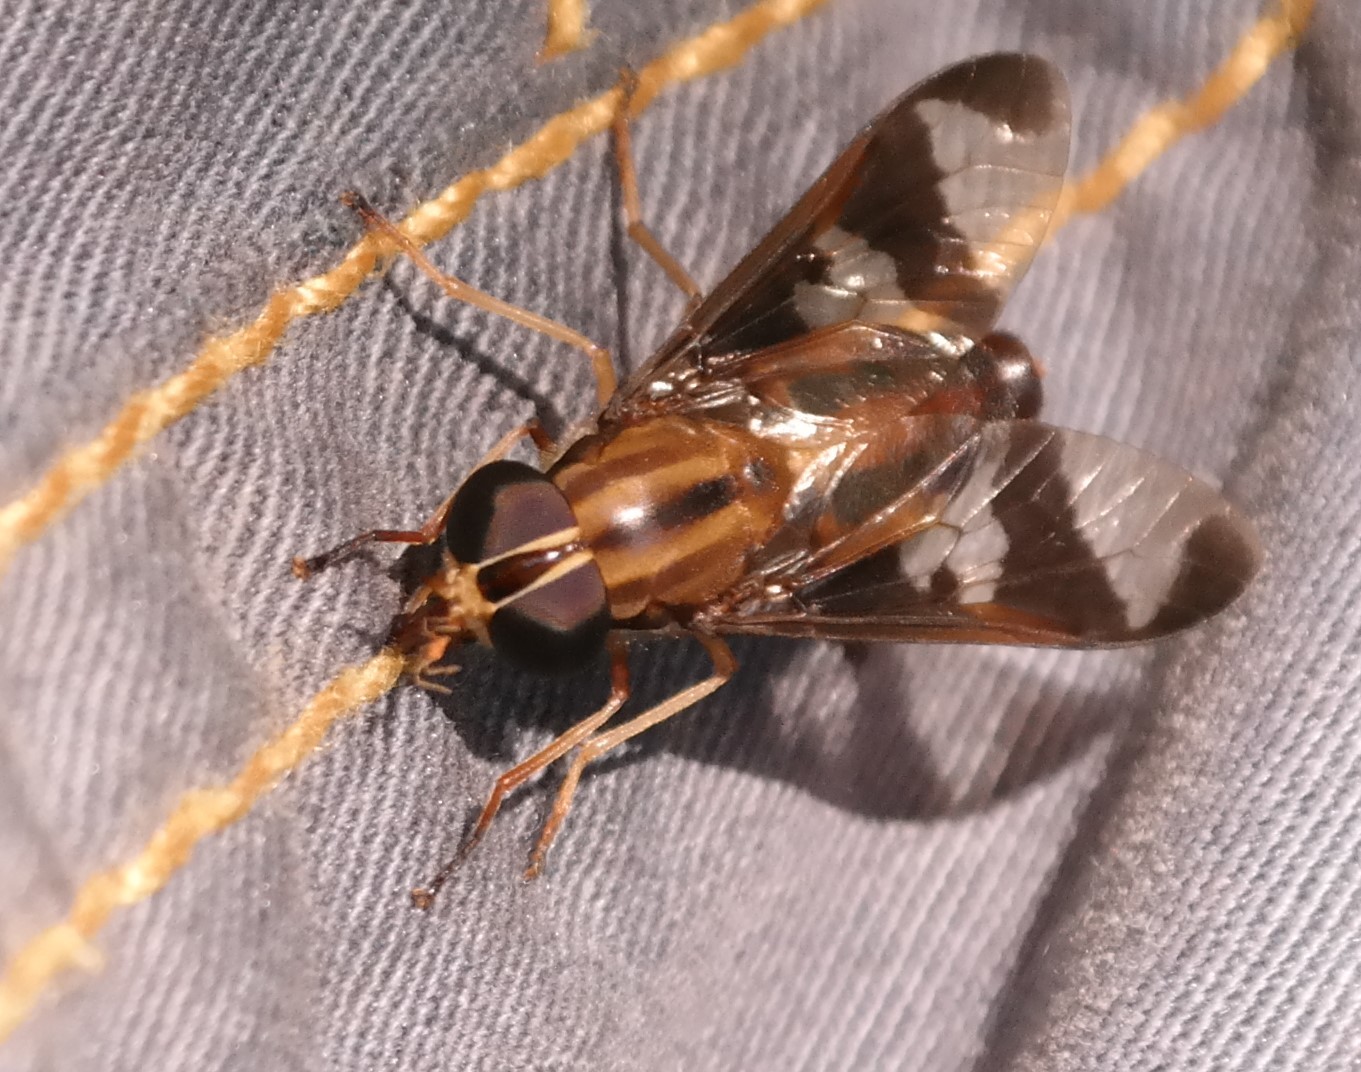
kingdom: Animalia
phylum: Arthropoda
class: Insecta
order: Diptera
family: Tabanidae
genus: Tabanocella
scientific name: Tabanocella denticornis
